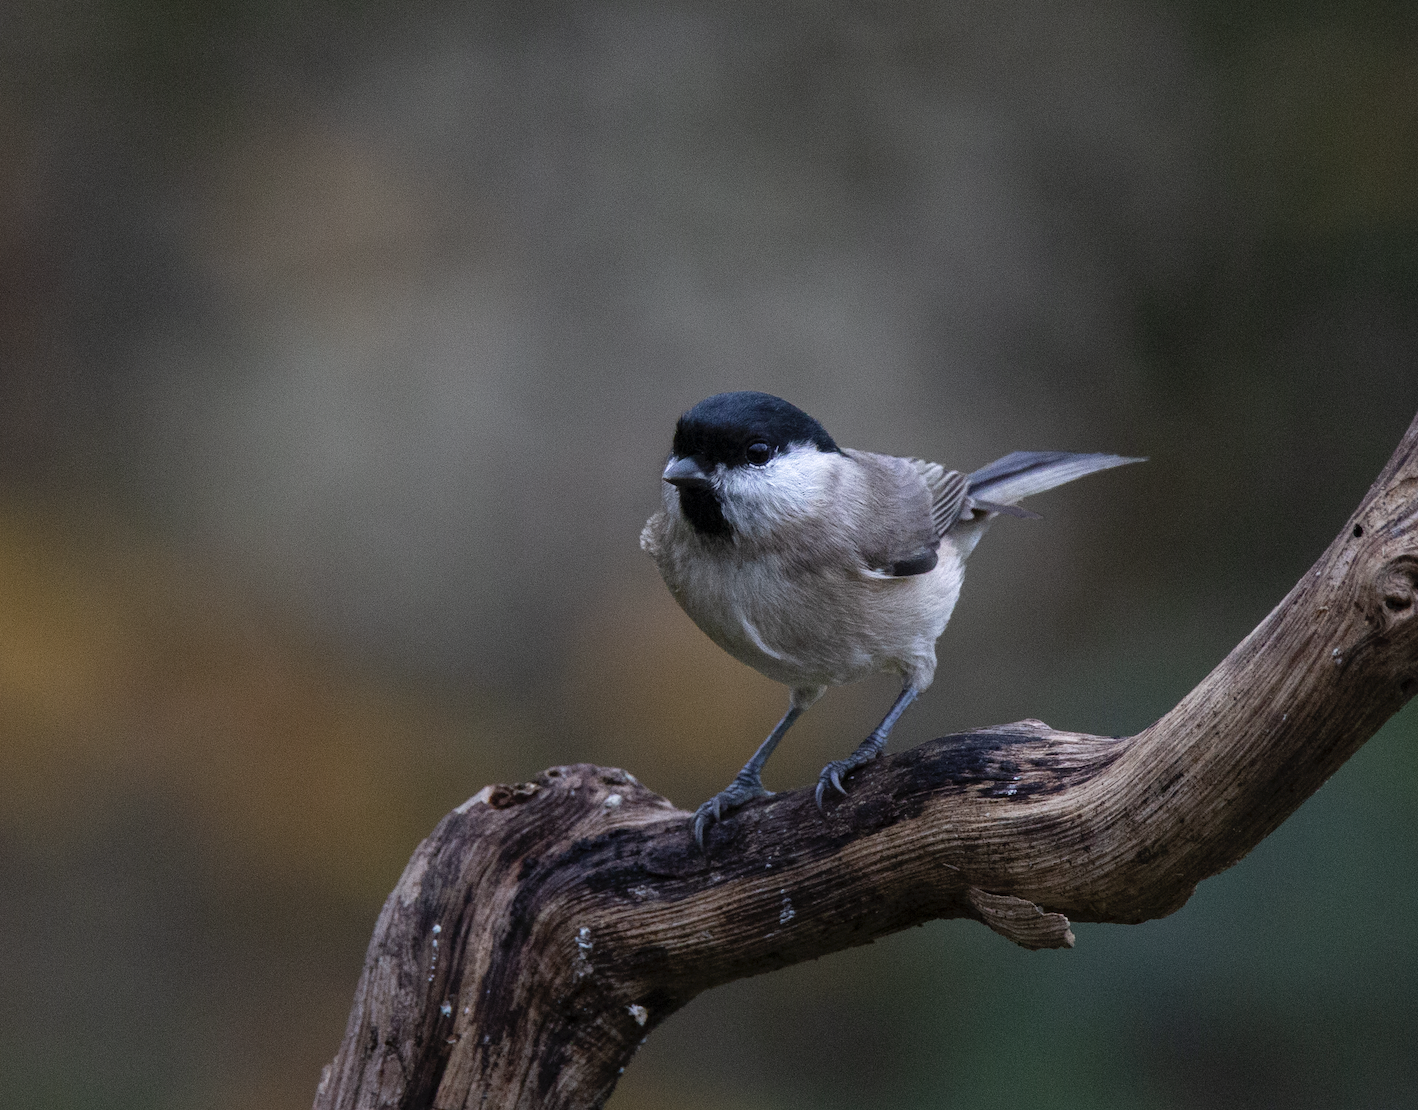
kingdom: Animalia
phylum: Chordata
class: Aves
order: Passeriformes
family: Paridae
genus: Poecile
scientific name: Poecile palustris
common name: Marsh tit
